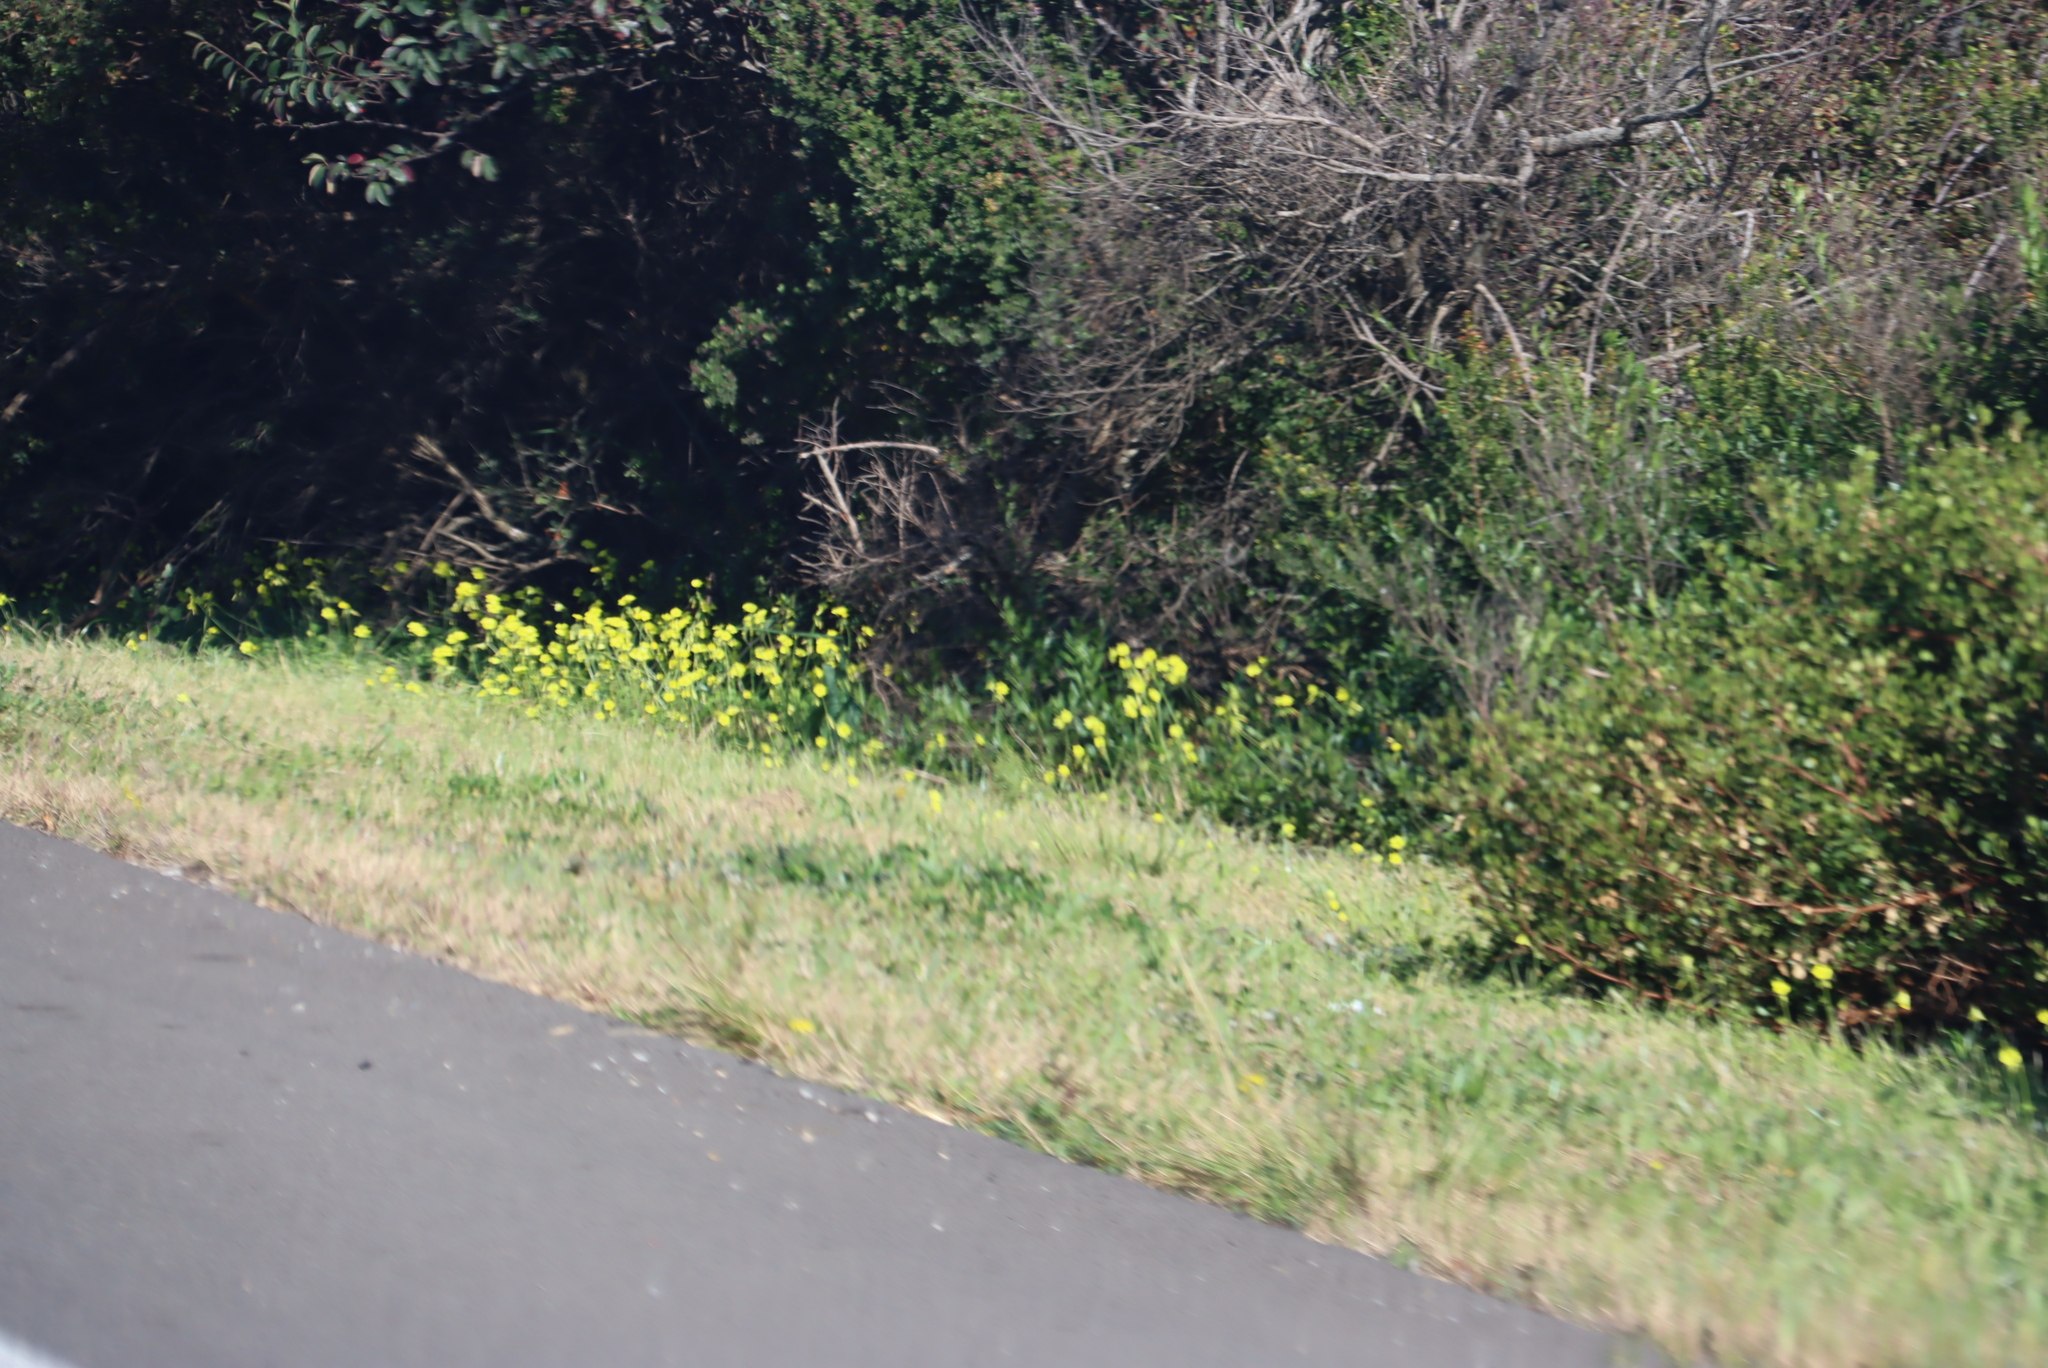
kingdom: Plantae
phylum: Tracheophyta
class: Magnoliopsida
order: Oxalidales
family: Oxalidaceae
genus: Oxalis
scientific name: Oxalis pes-caprae
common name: Bermuda-buttercup
